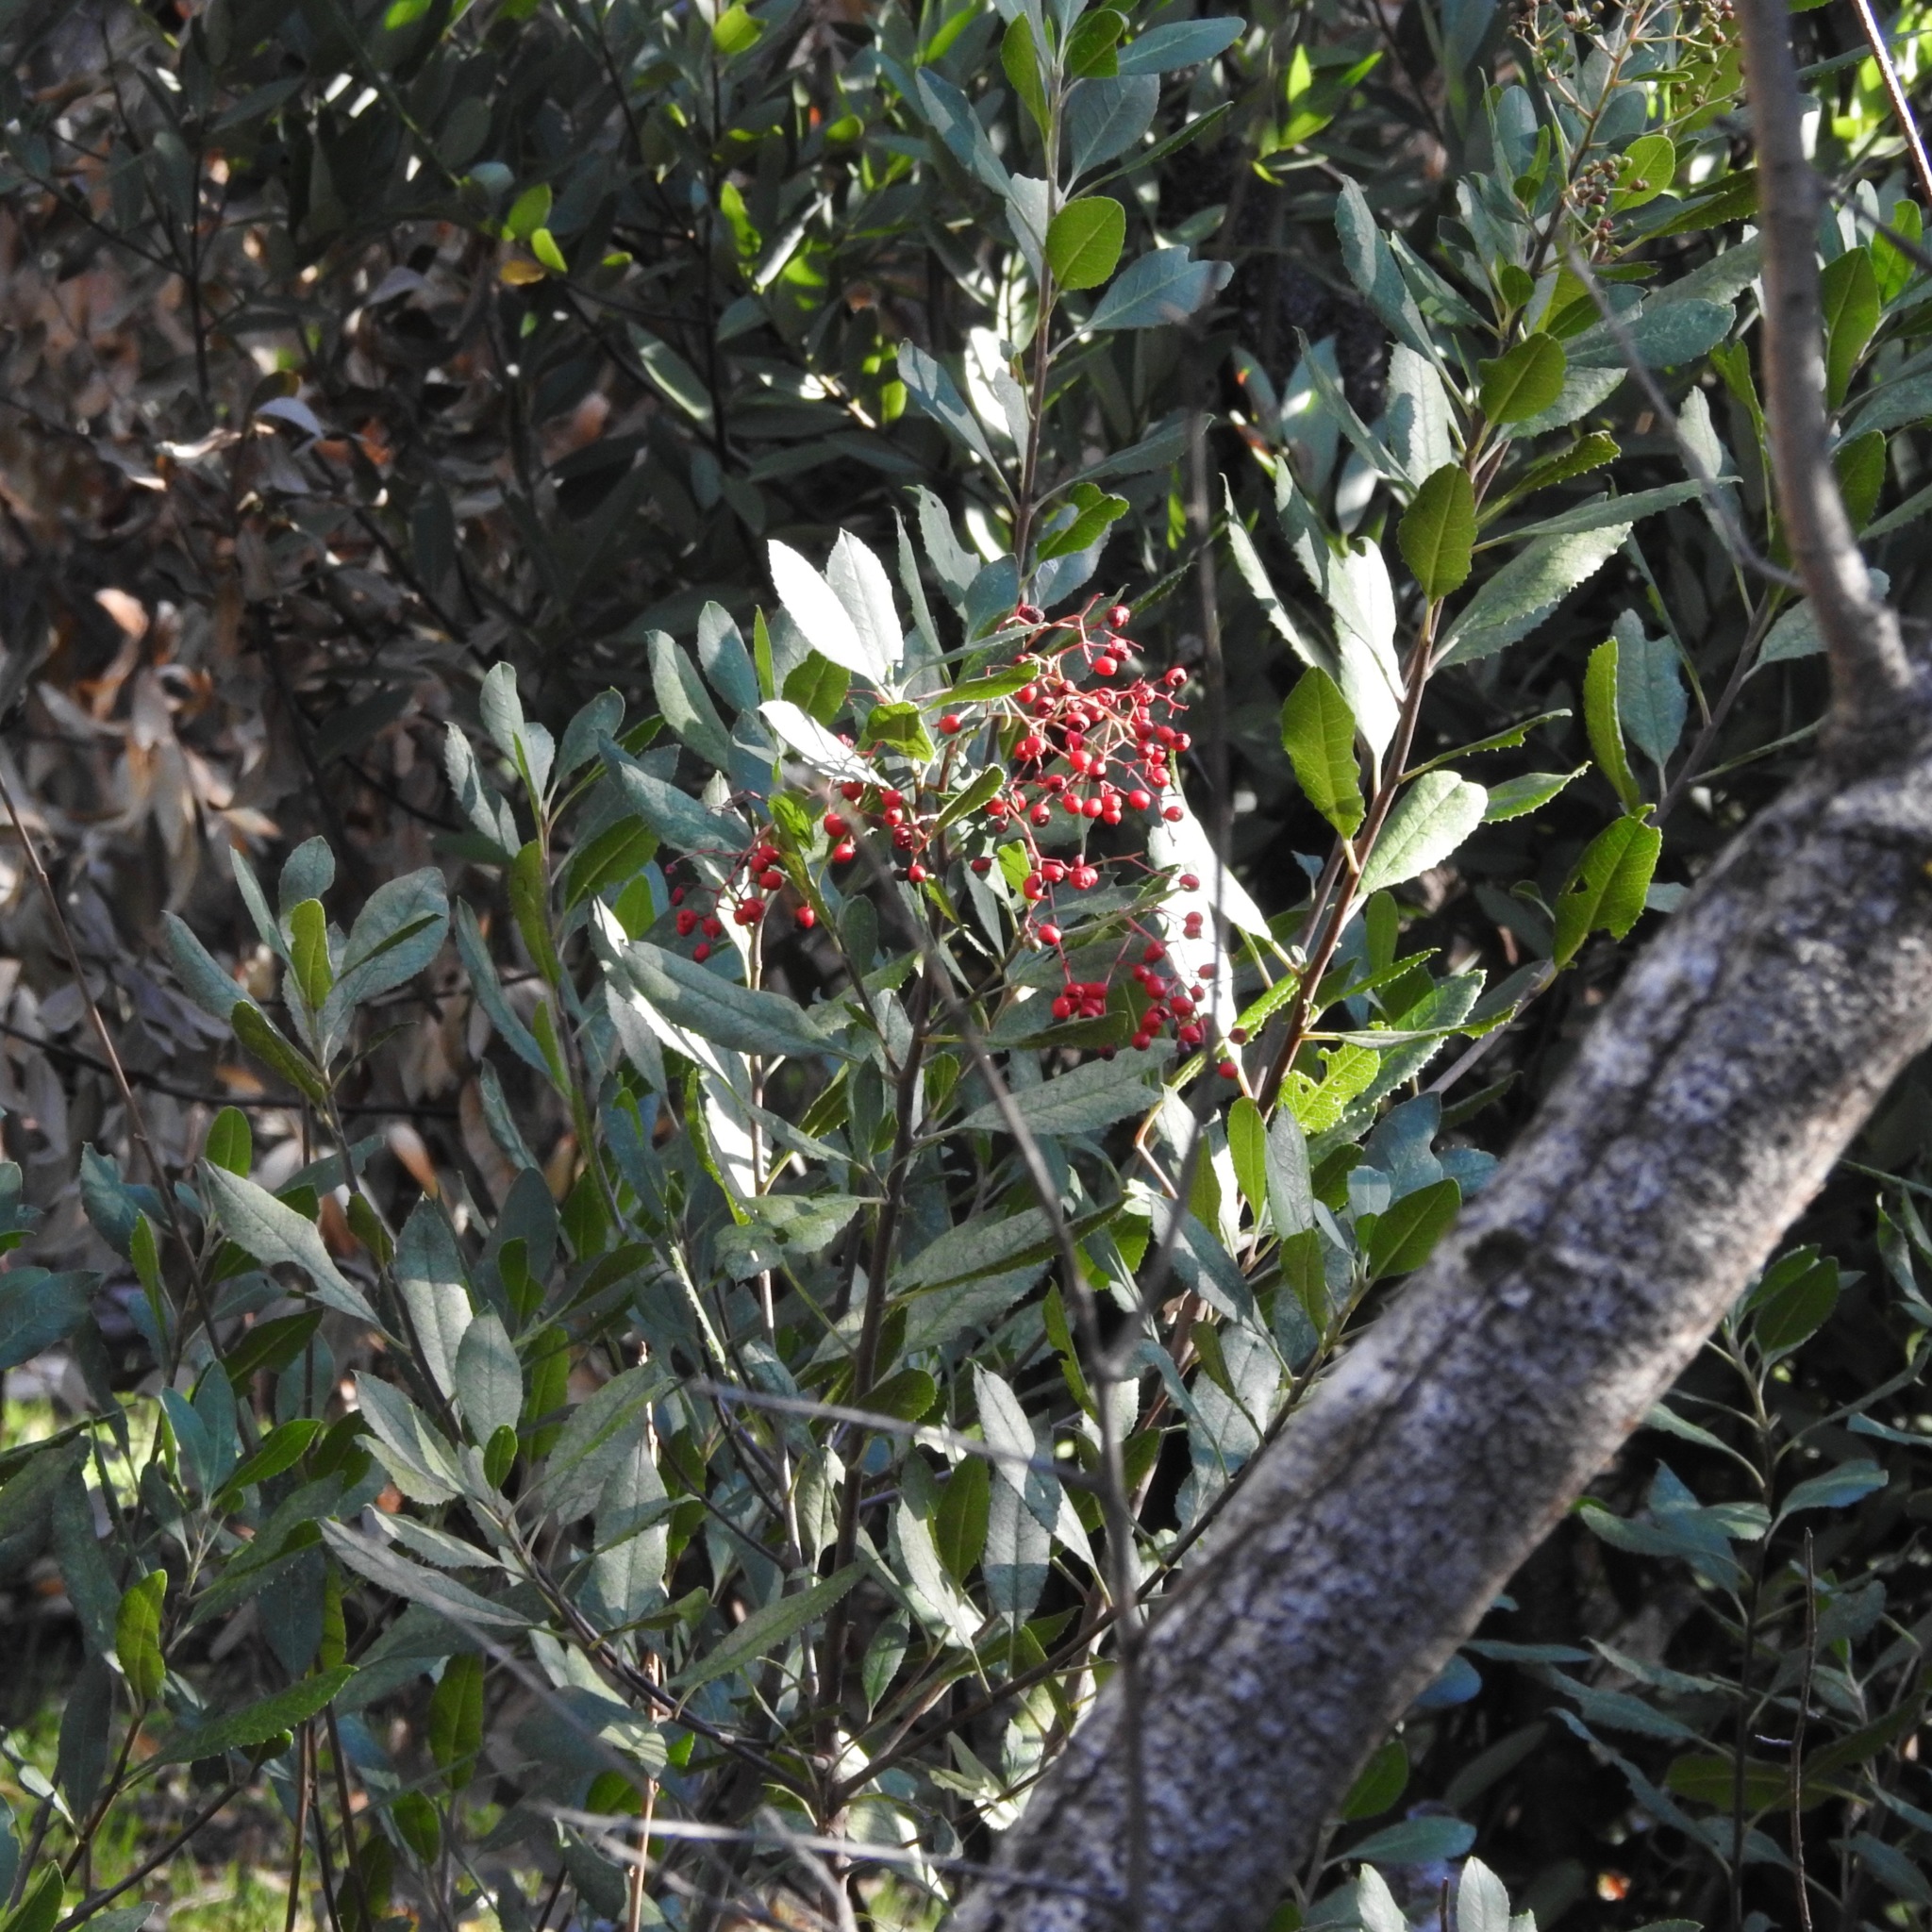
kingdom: Plantae
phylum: Tracheophyta
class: Magnoliopsida
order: Rosales
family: Rosaceae
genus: Heteromeles
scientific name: Heteromeles arbutifolia
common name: California-holly
